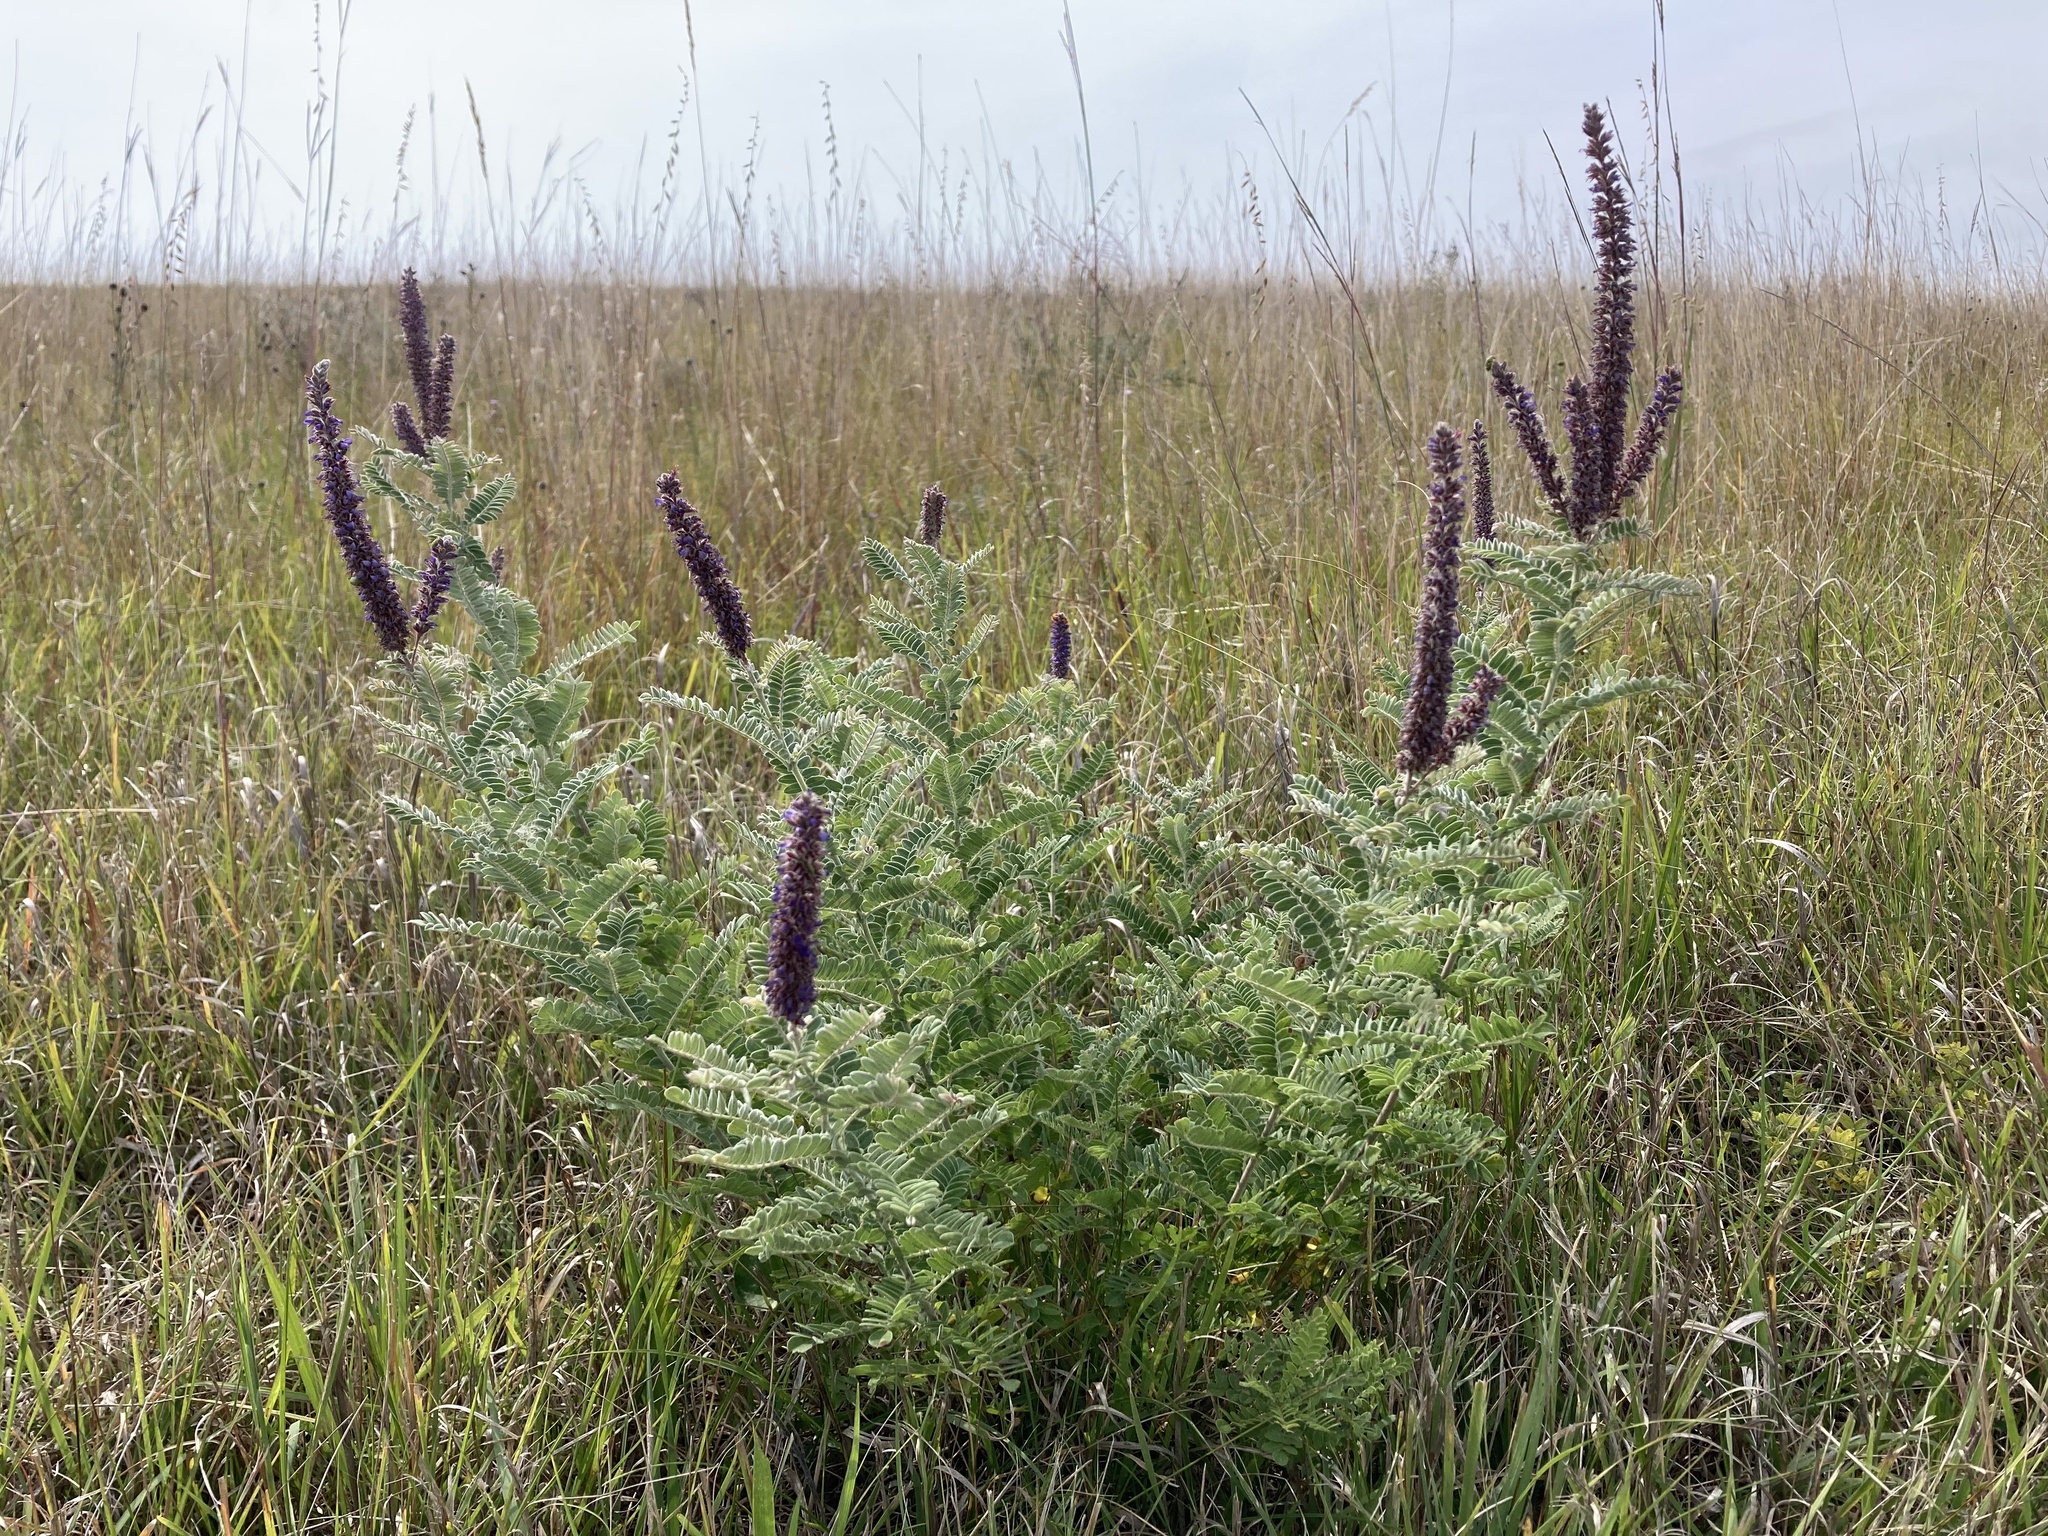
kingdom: Plantae
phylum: Tracheophyta
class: Magnoliopsida
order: Fabales
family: Fabaceae
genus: Amorpha
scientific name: Amorpha canescens
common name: Leadplant
